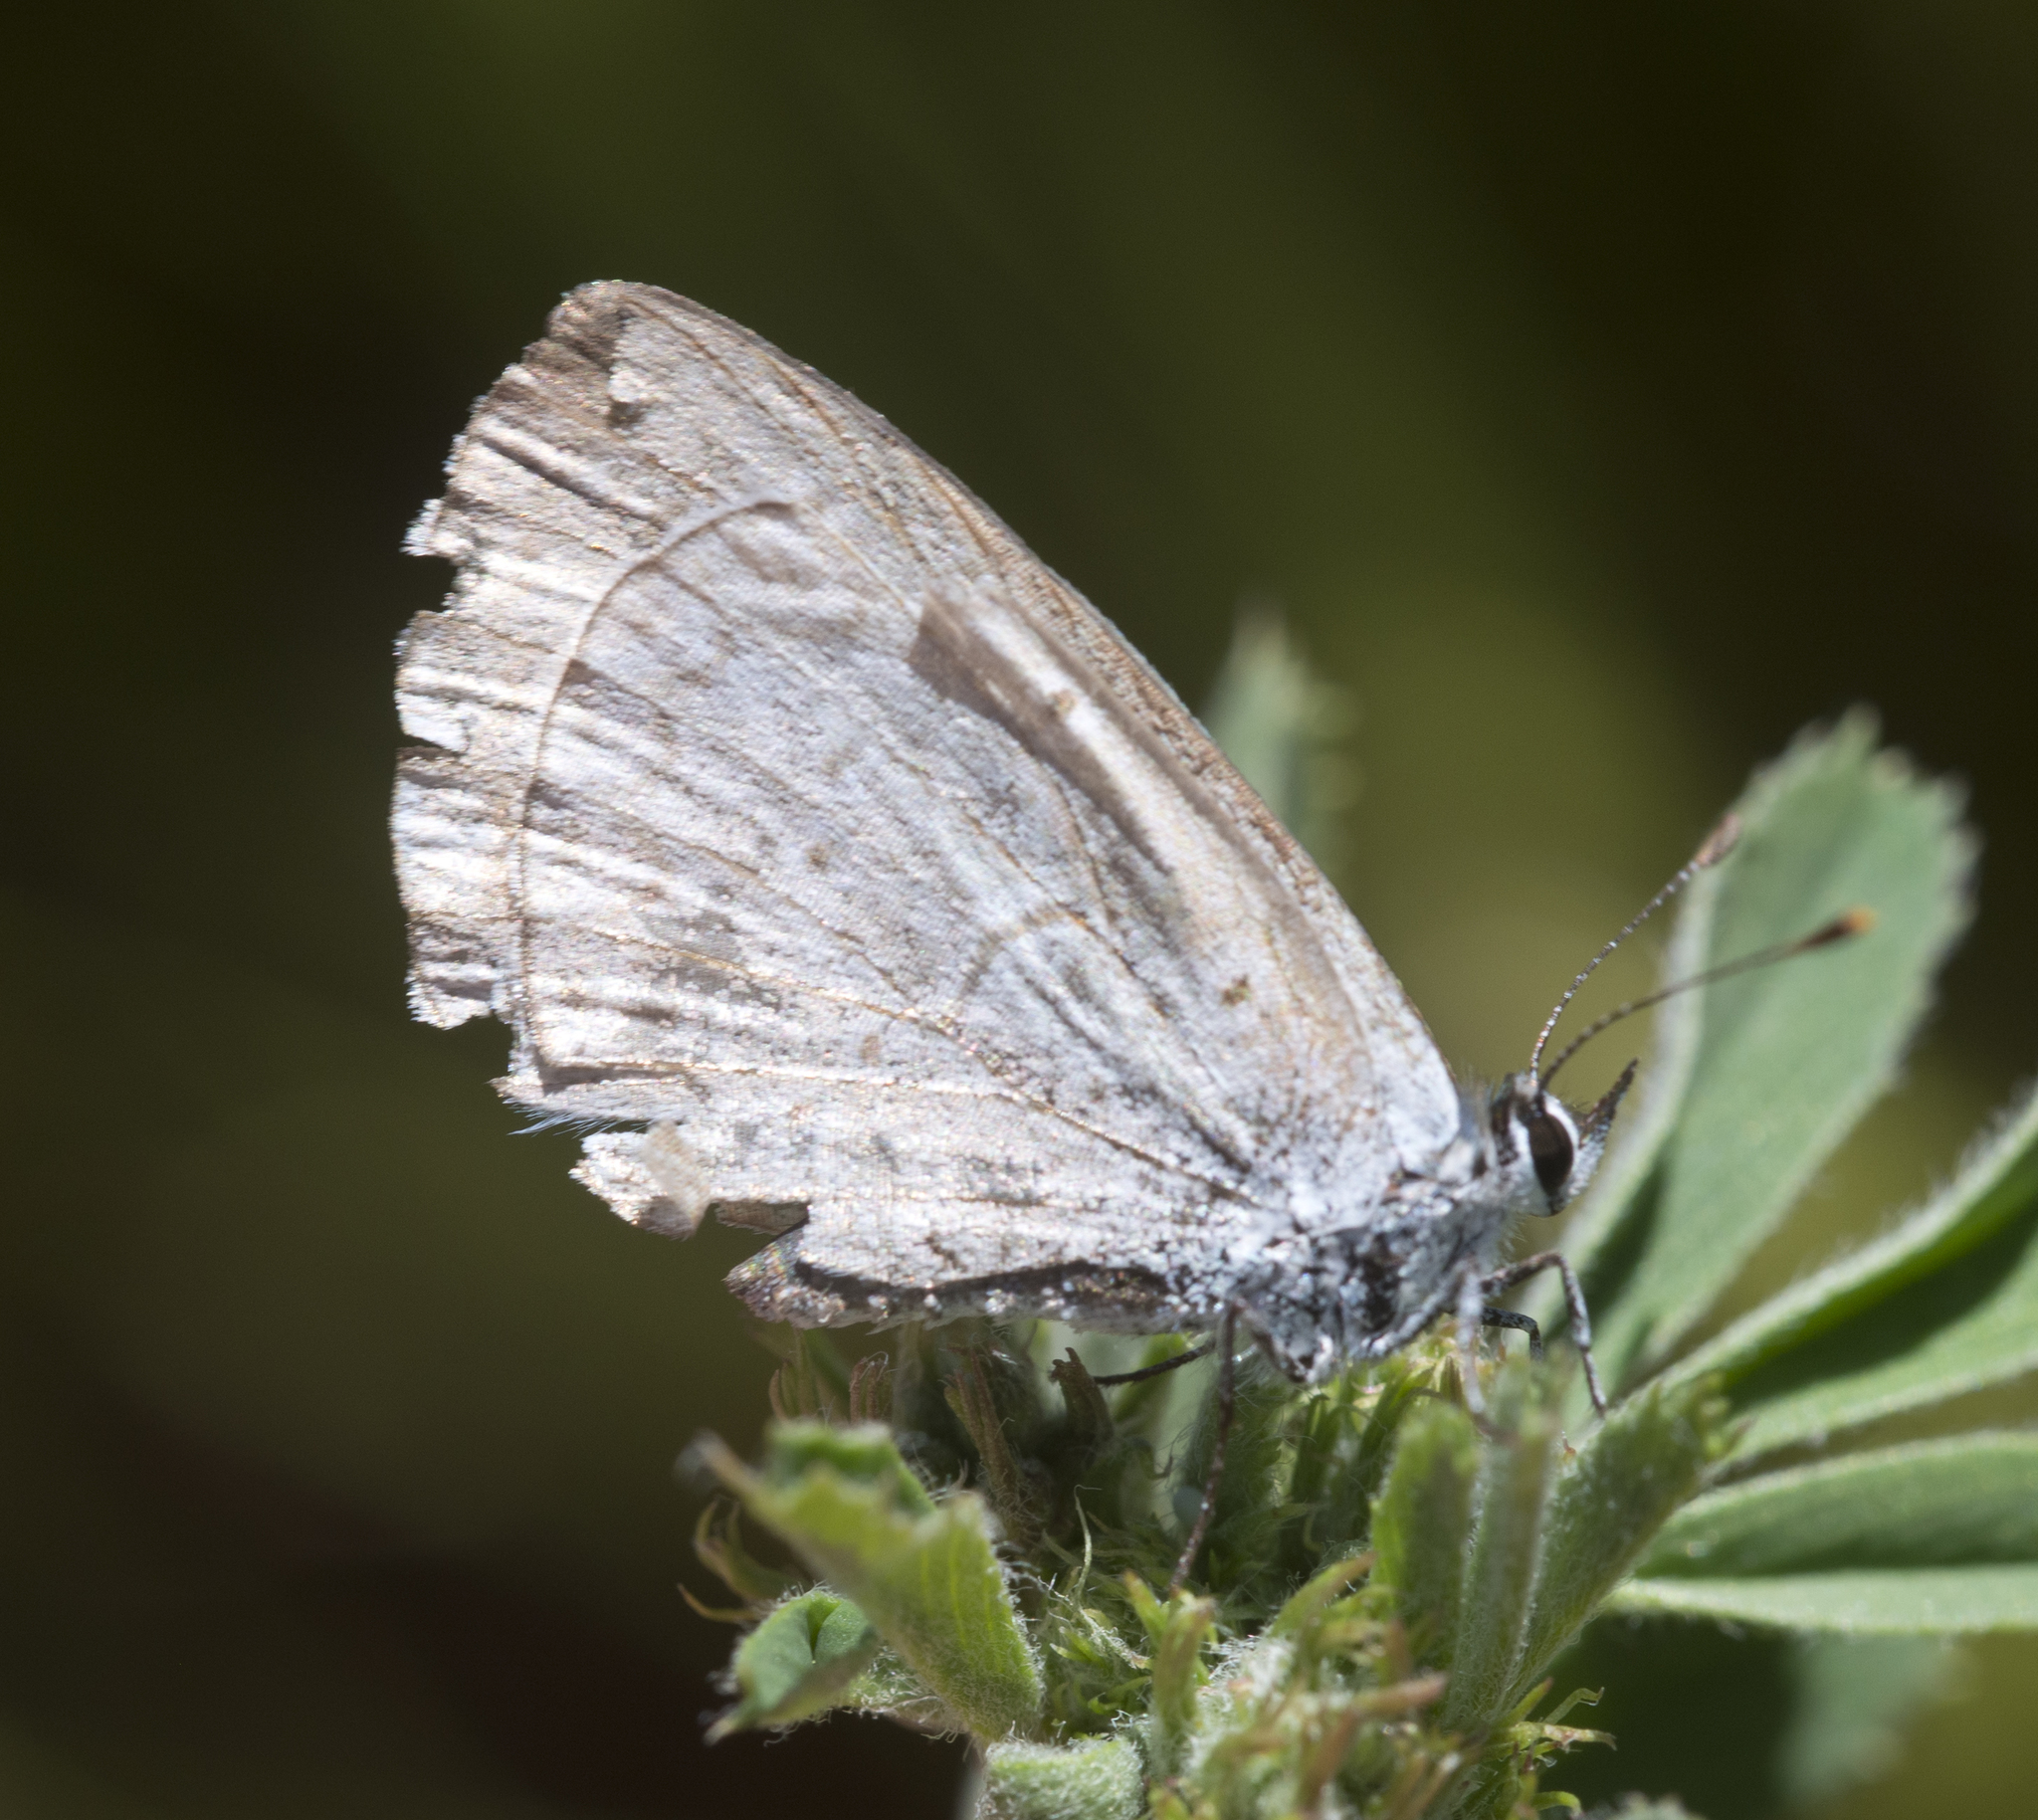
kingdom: Animalia
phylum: Arthropoda
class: Insecta
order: Lepidoptera
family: Lycaenidae
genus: Celastrina
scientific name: Celastrina ladon
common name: Spring azure
